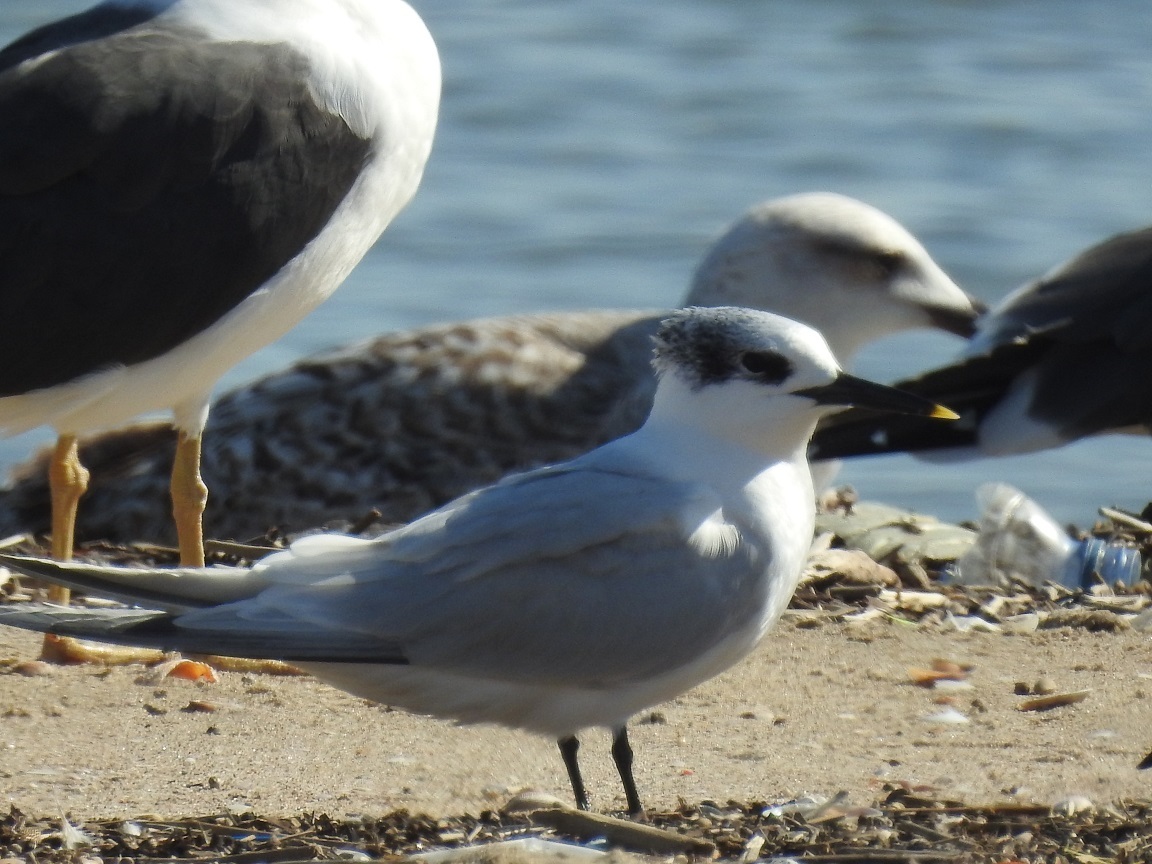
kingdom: Animalia
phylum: Chordata
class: Aves
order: Charadriiformes
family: Laridae
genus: Thalasseus
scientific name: Thalasseus sandvicensis
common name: Sandwich tern
